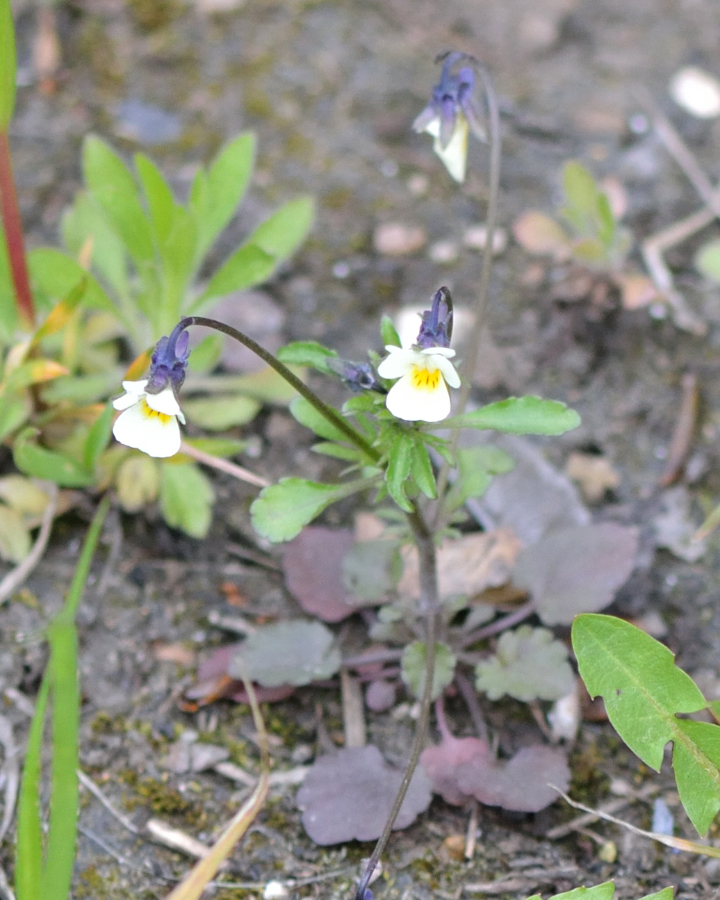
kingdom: Plantae
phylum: Tracheophyta
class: Magnoliopsida
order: Malpighiales
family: Violaceae
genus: Viola
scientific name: Viola arvensis
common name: Field pansy
